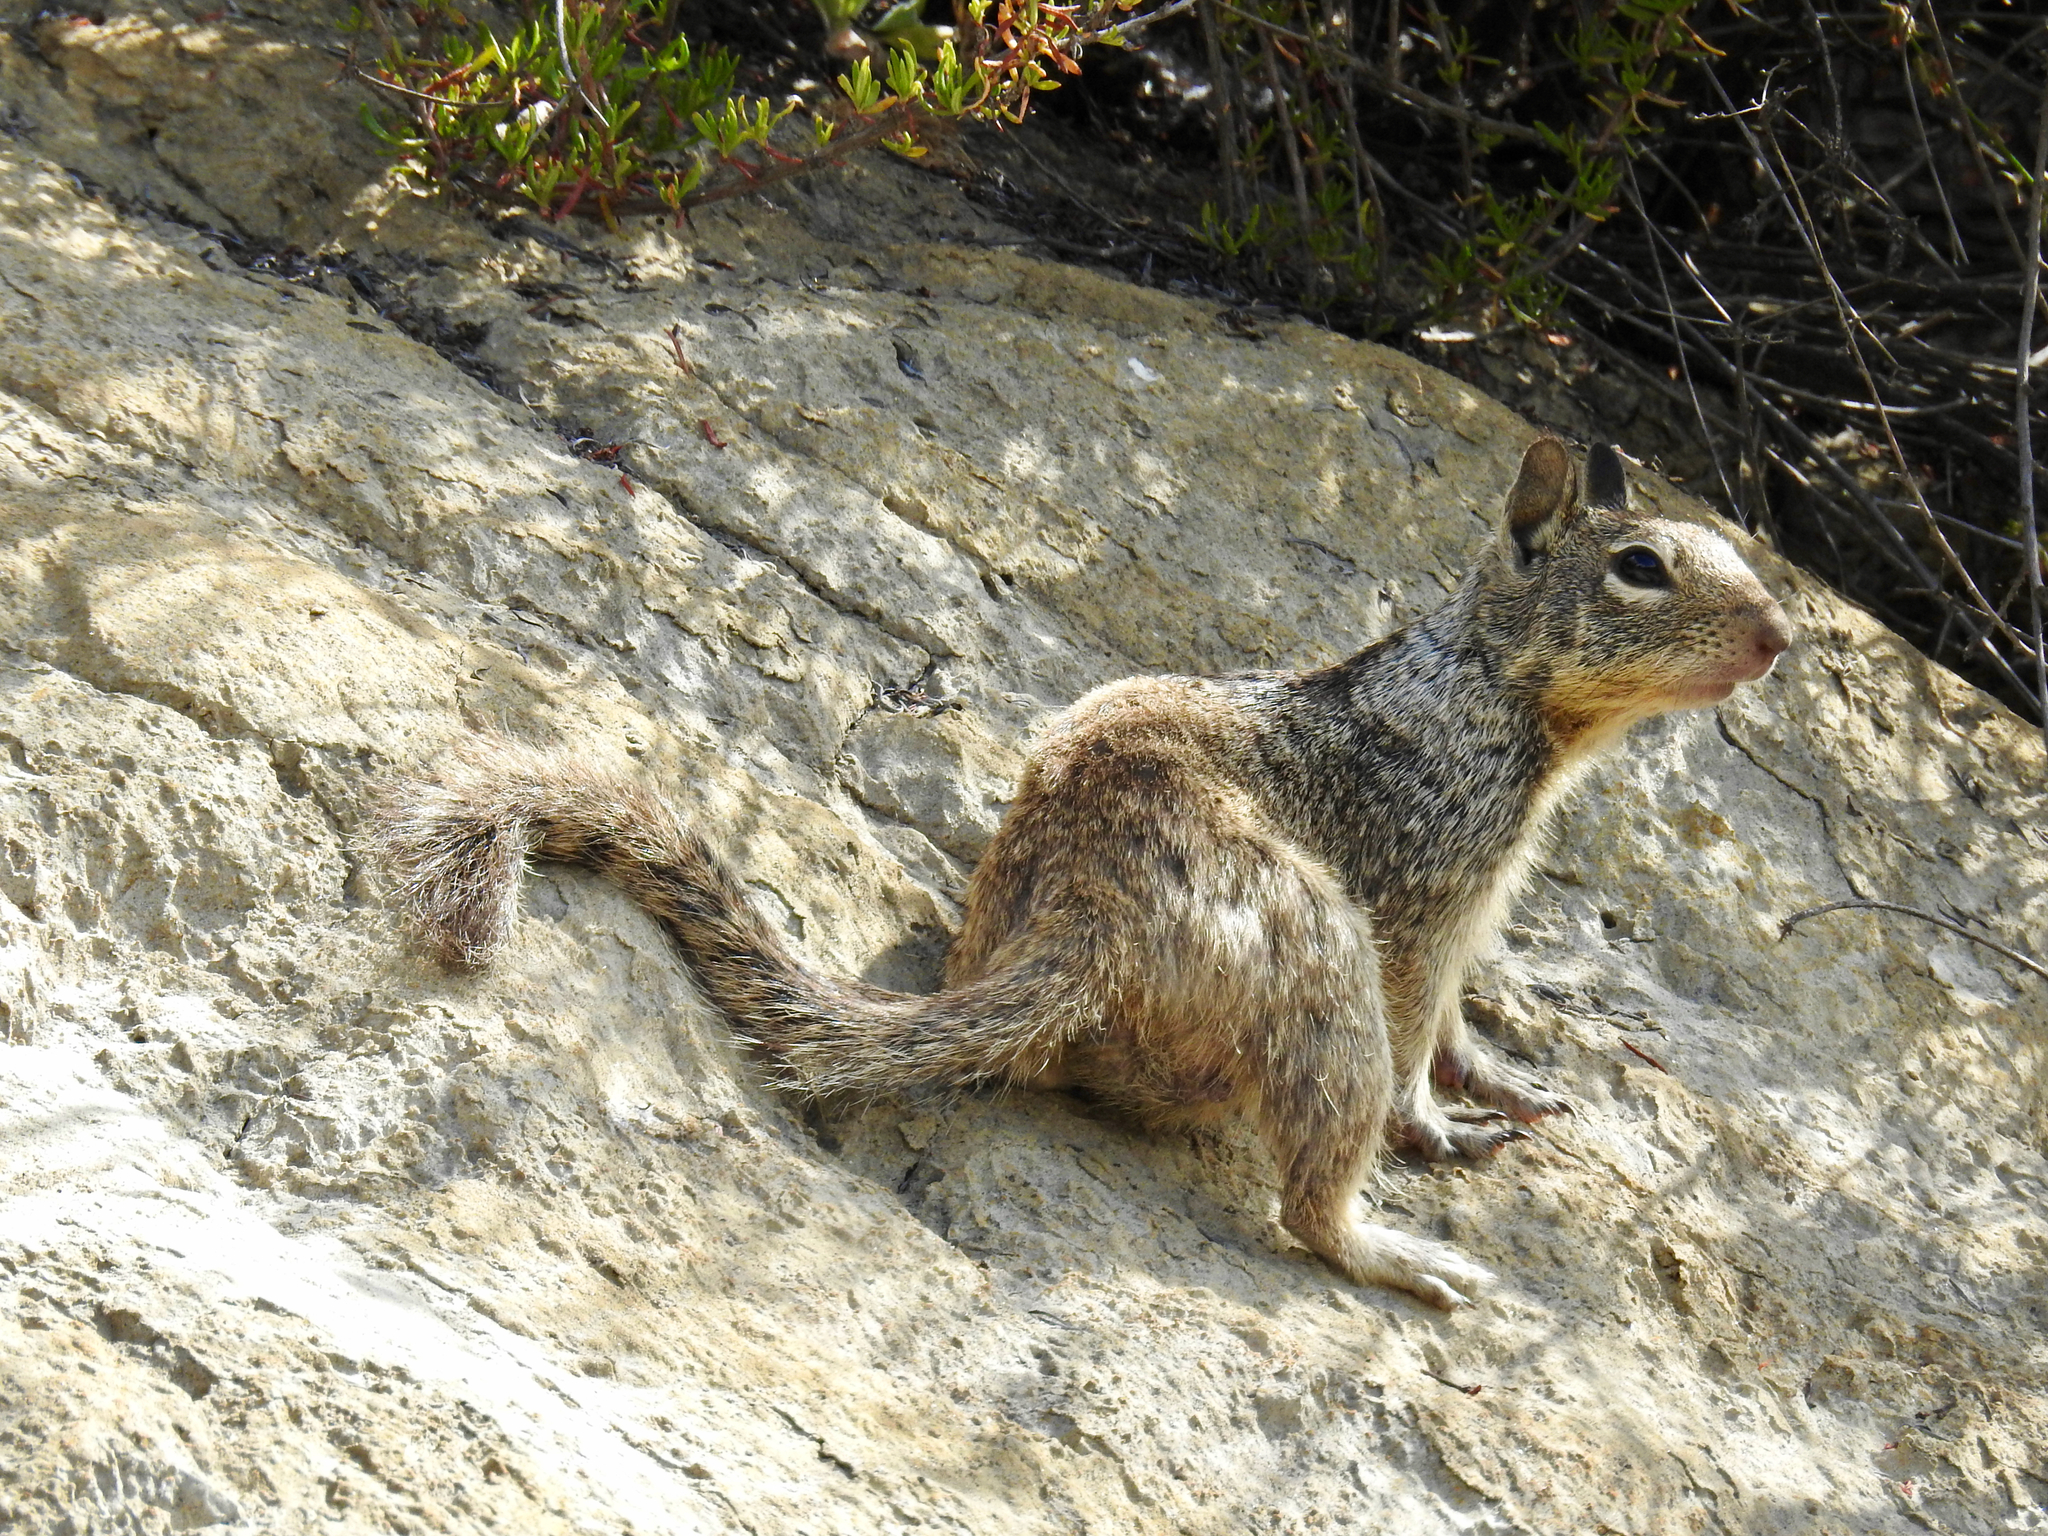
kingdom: Animalia
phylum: Chordata
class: Mammalia
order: Rodentia
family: Sciuridae
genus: Otospermophilus
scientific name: Otospermophilus beecheyi
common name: California ground squirrel
